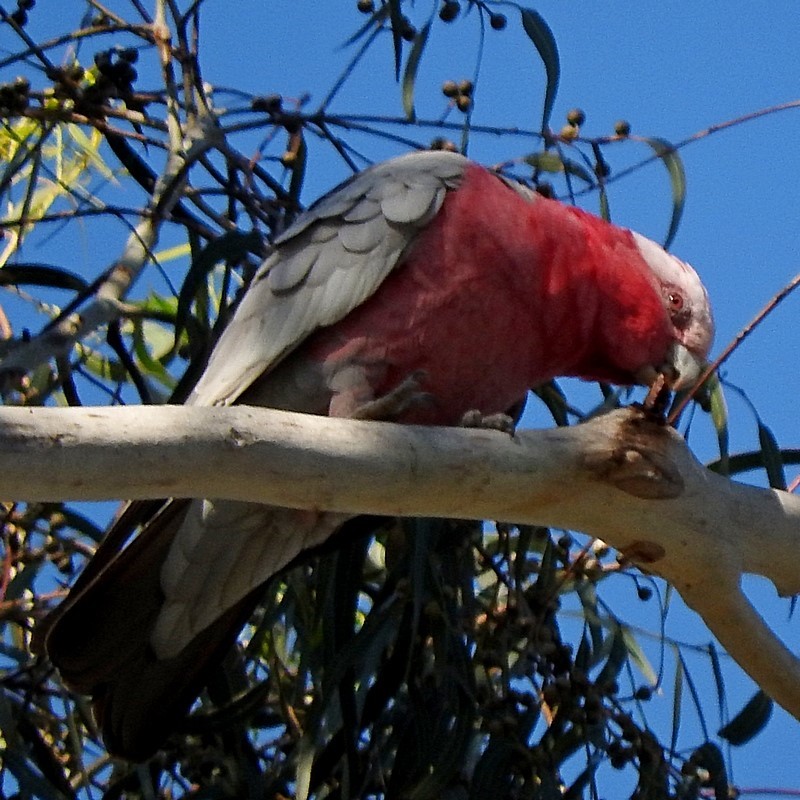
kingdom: Animalia
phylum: Chordata
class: Aves
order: Psittaciformes
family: Psittacidae
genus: Eolophus
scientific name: Eolophus roseicapilla
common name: Galah
